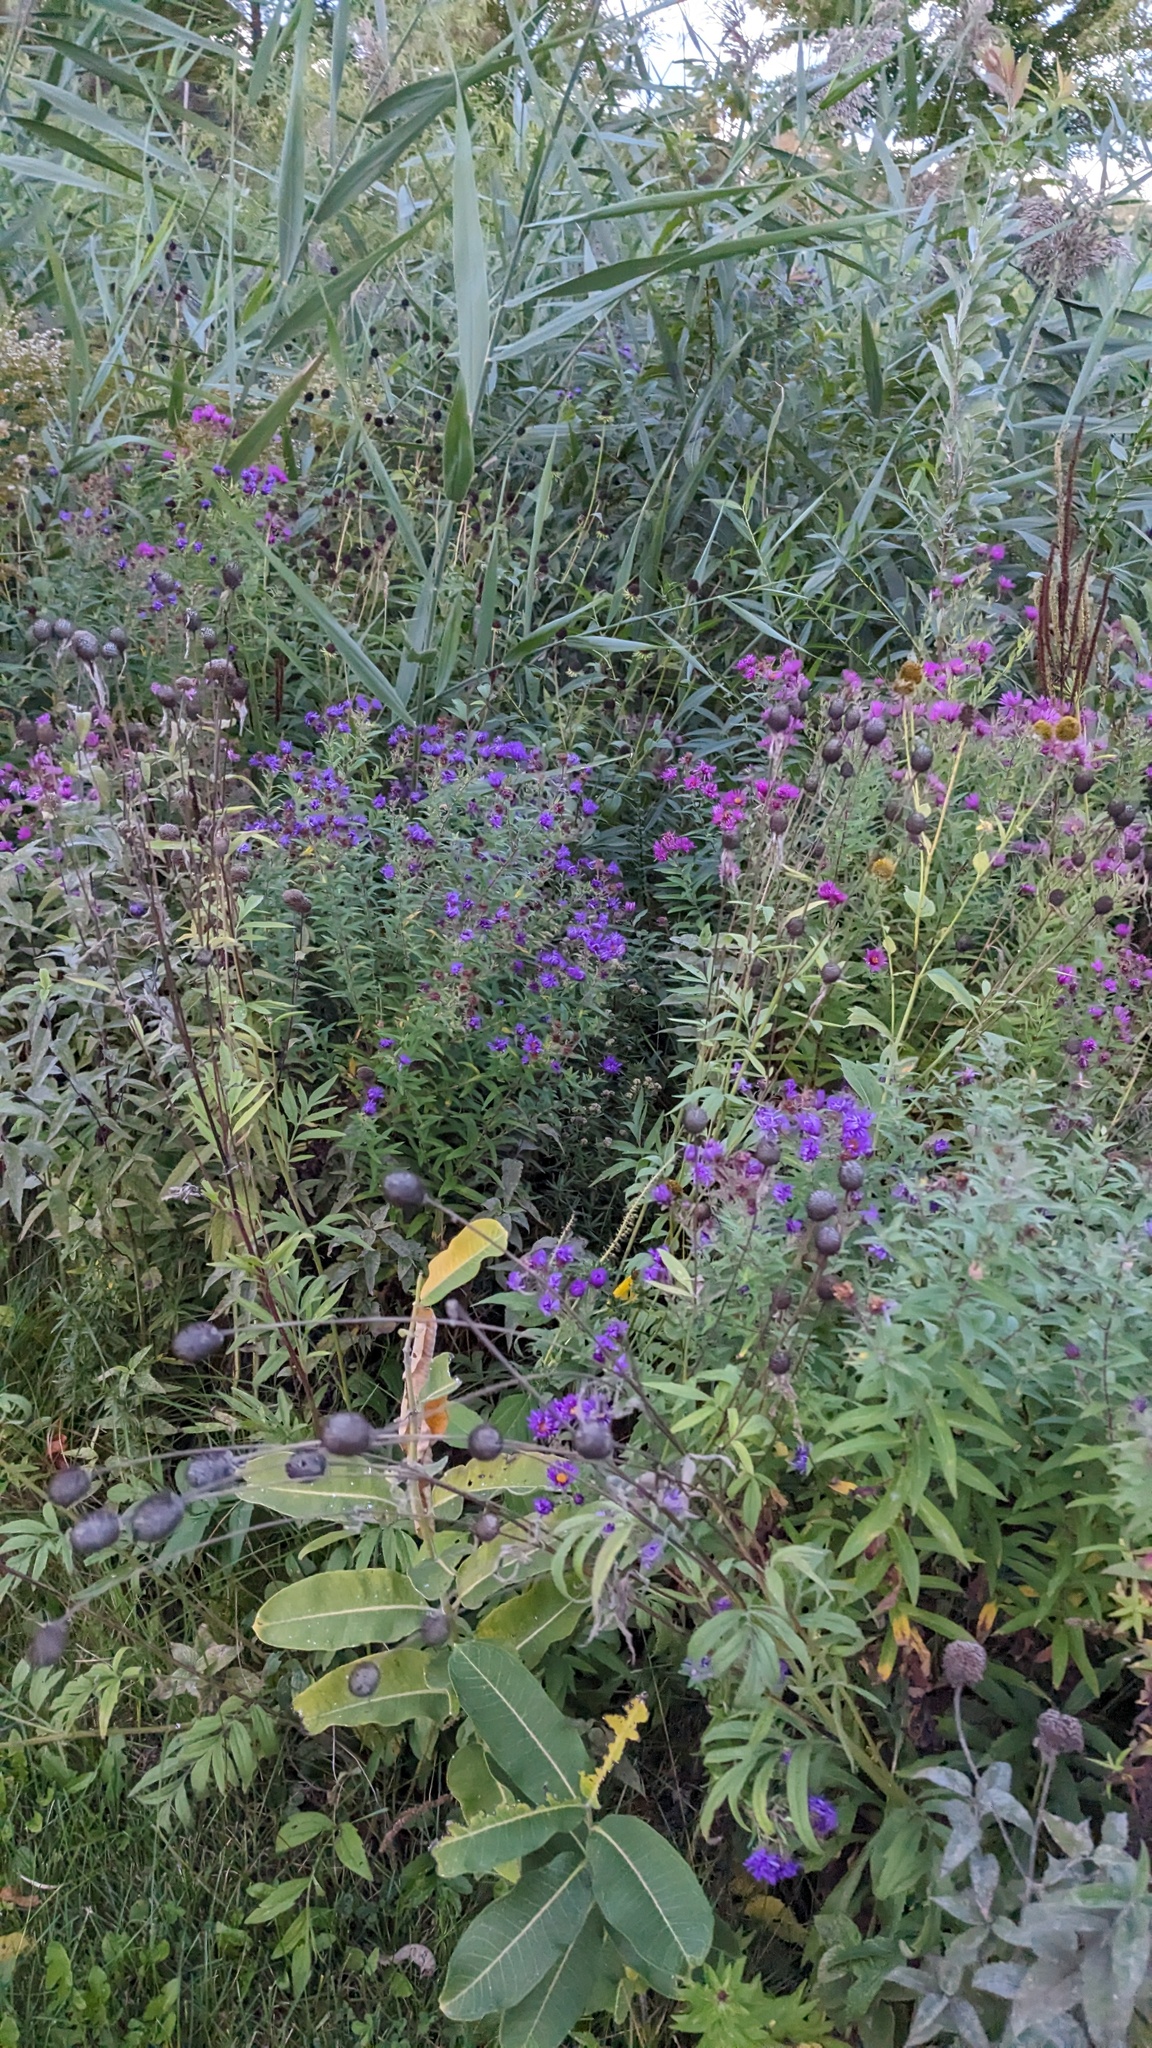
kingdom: Plantae
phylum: Tracheophyta
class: Magnoliopsida
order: Asterales
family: Asteraceae
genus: Symphyotrichum
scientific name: Symphyotrichum novae-angliae
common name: Michaelmas daisy
